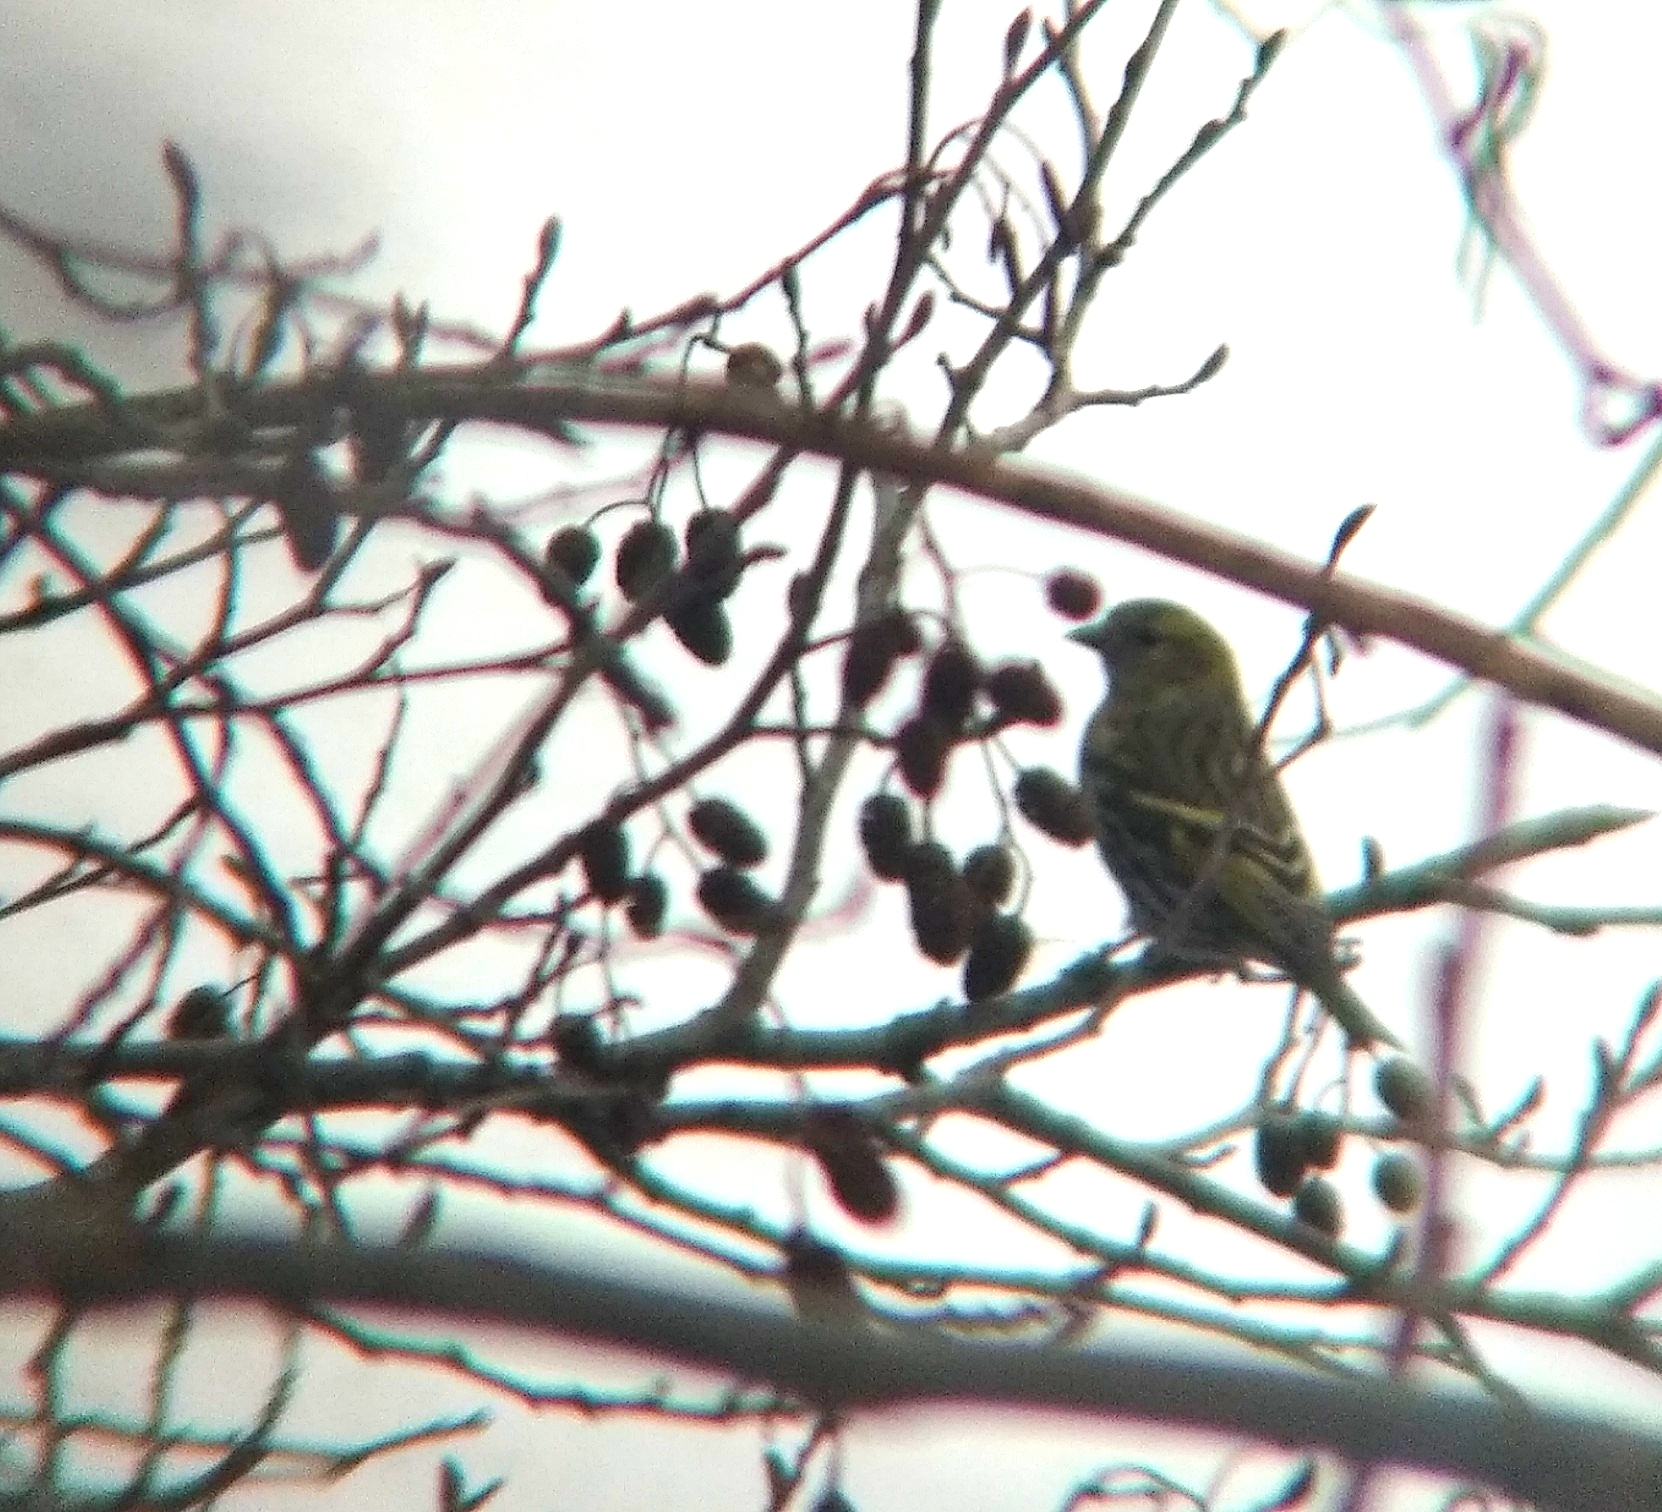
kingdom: Animalia
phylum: Chordata
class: Aves
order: Passeriformes
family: Fringillidae
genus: Spinus
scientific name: Spinus spinus
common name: Eurasian siskin
